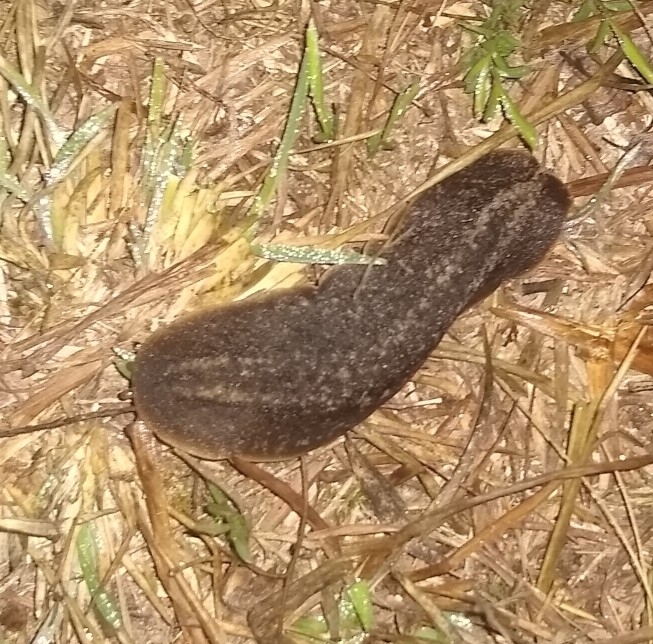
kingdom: Animalia
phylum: Mollusca
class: Gastropoda
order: Systellommatophora
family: Veronicellidae
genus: Phyllocaulis
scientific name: Phyllocaulis soleiformis
